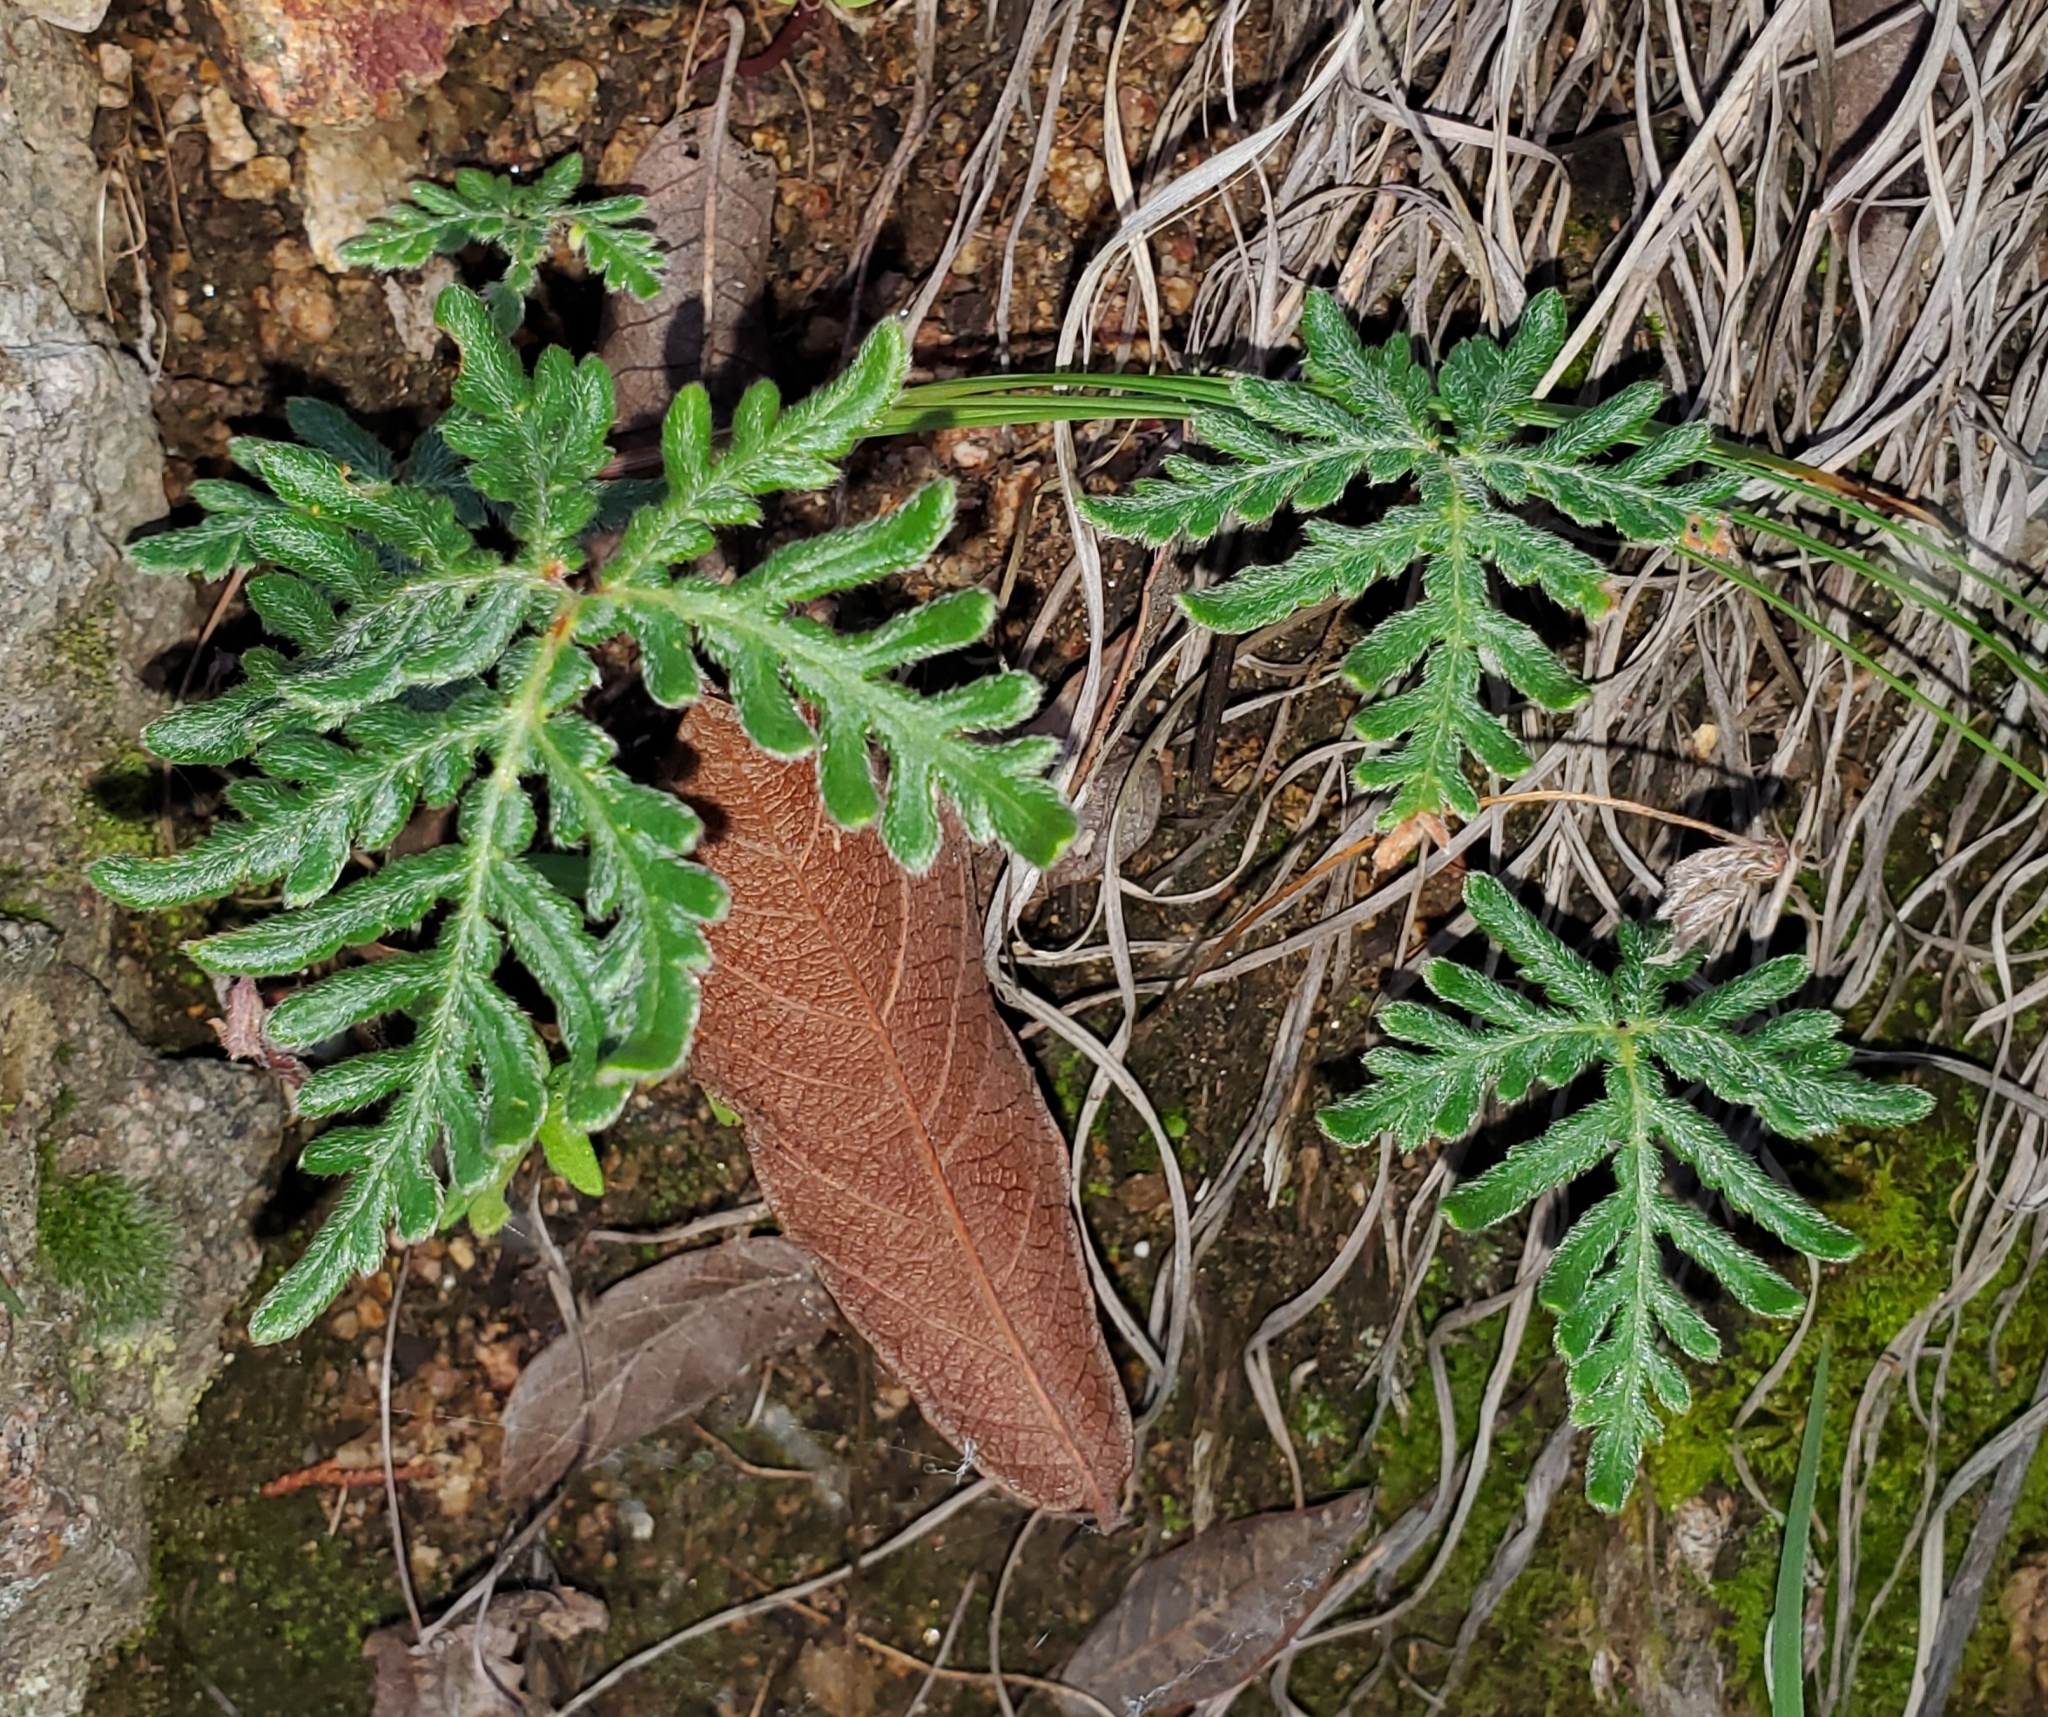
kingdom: Plantae
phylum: Tracheophyta
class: Polypodiopsida
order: Polypodiales
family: Pteridaceae
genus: Bommeria
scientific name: Bommeria hispida
